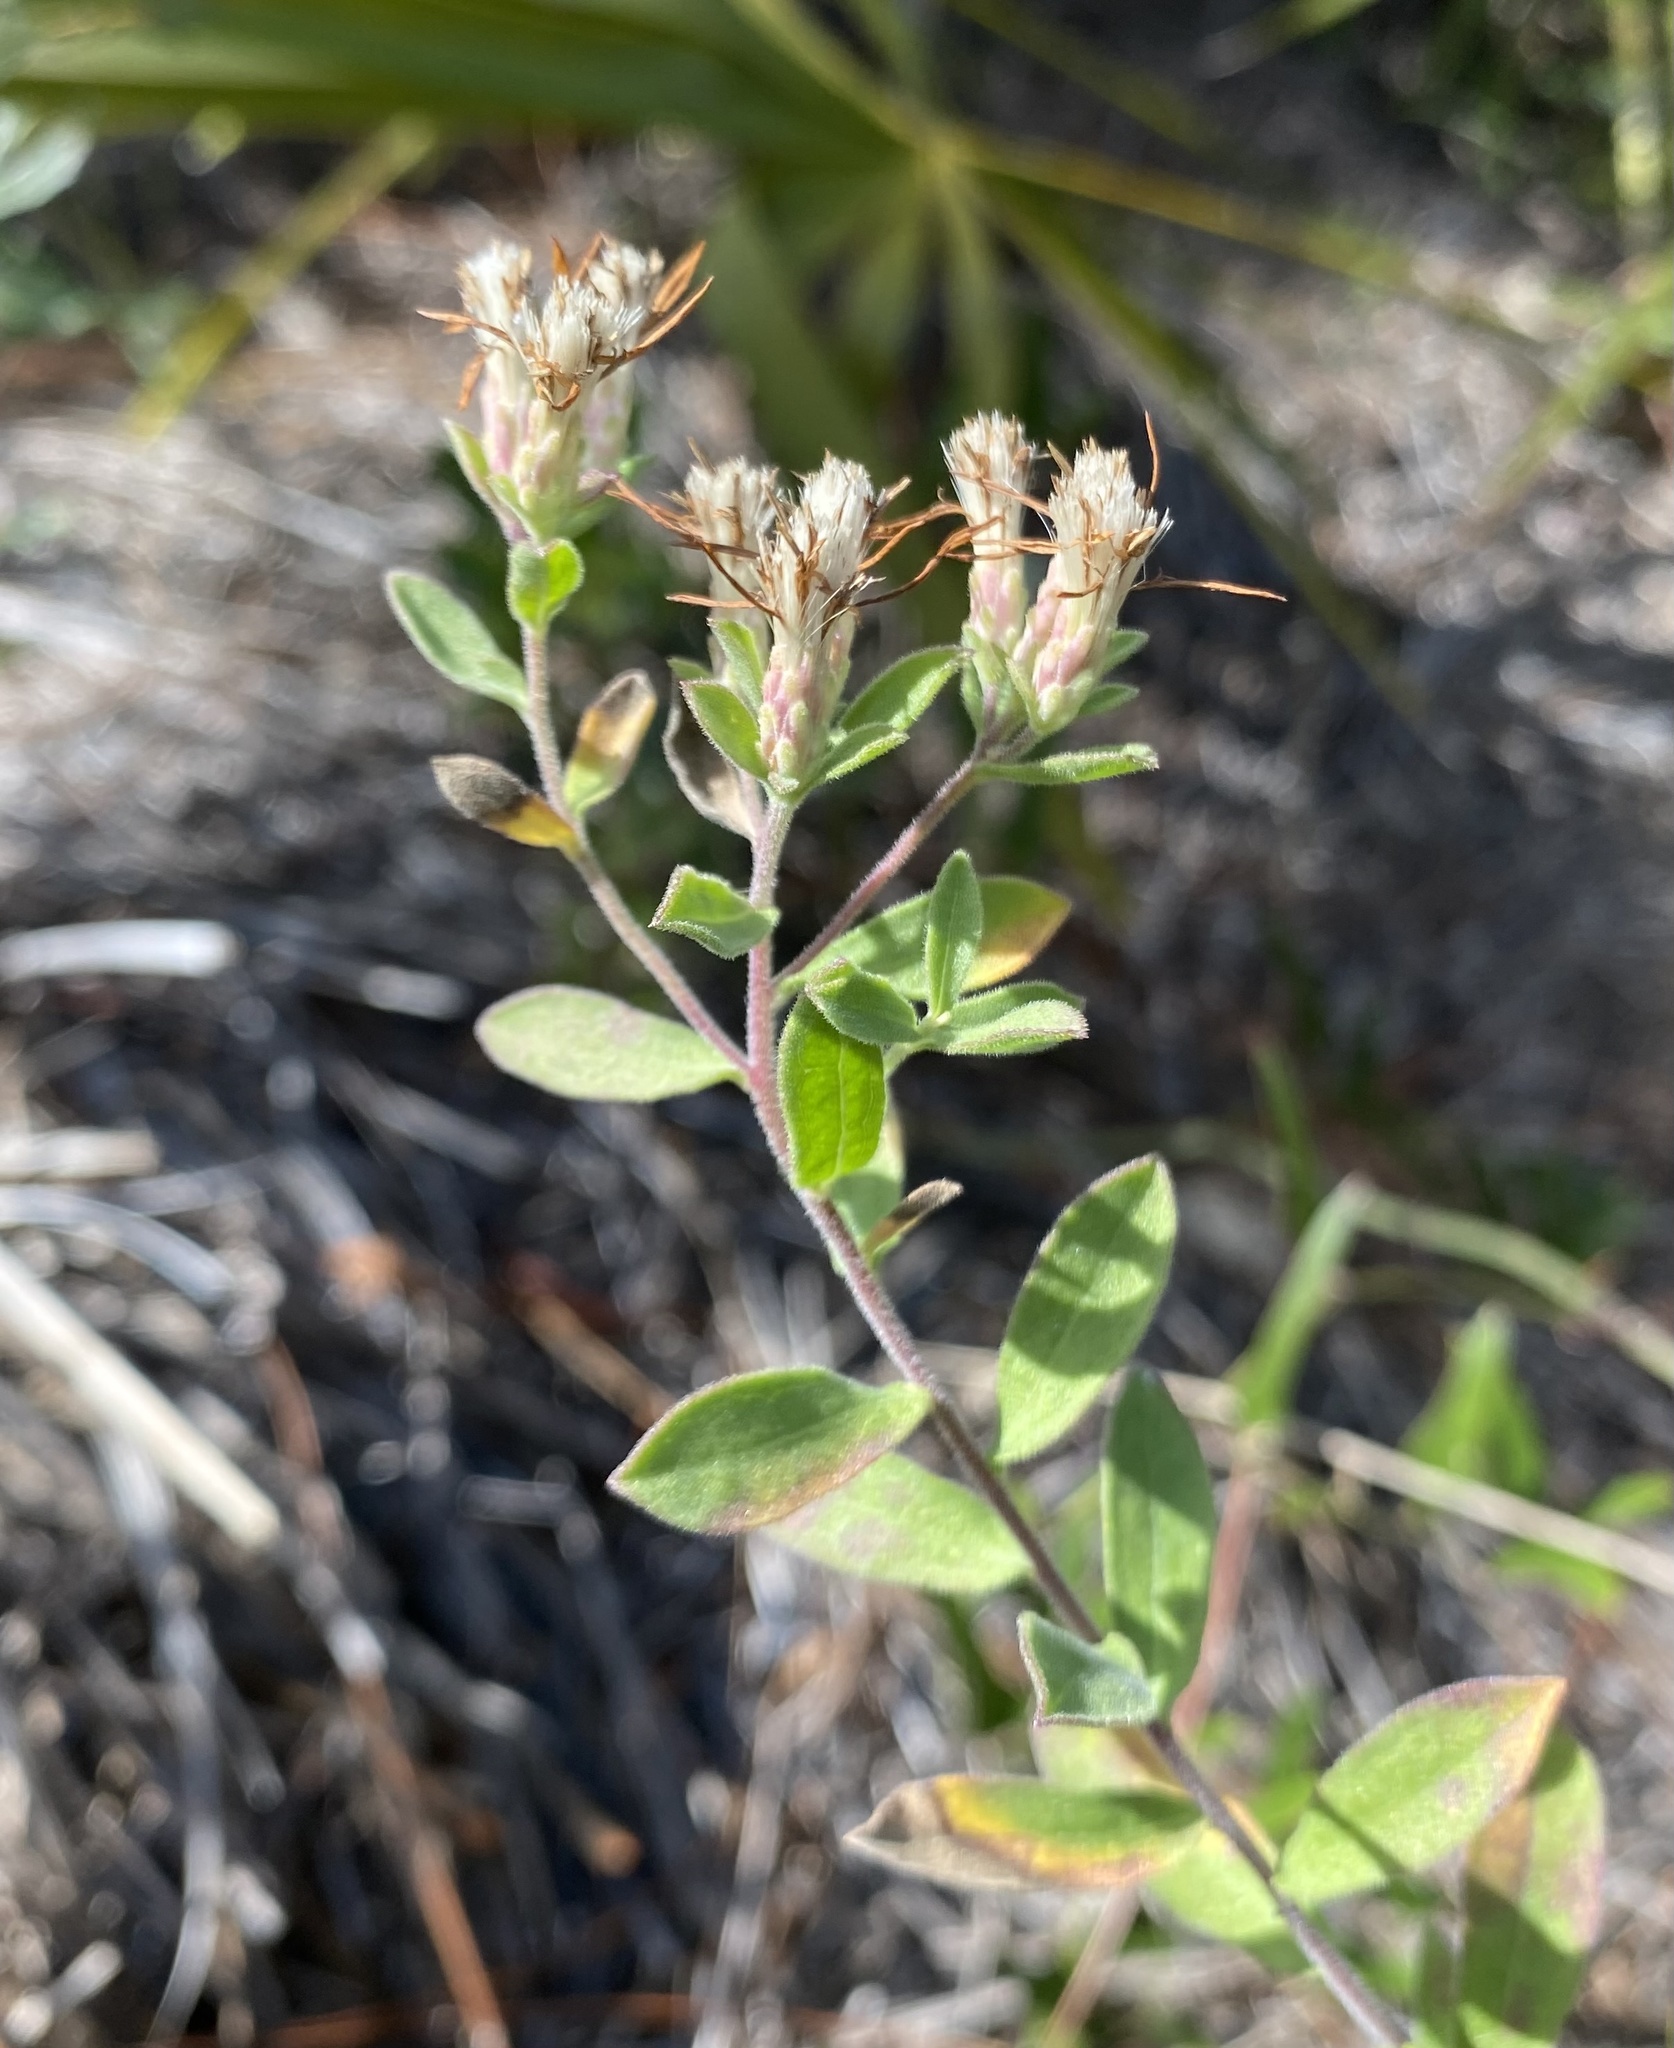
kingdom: Plantae
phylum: Tracheophyta
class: Magnoliopsida
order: Asterales
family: Asteraceae
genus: Sericocarpus
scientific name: Sericocarpus tortifolius
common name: Dixie aster
